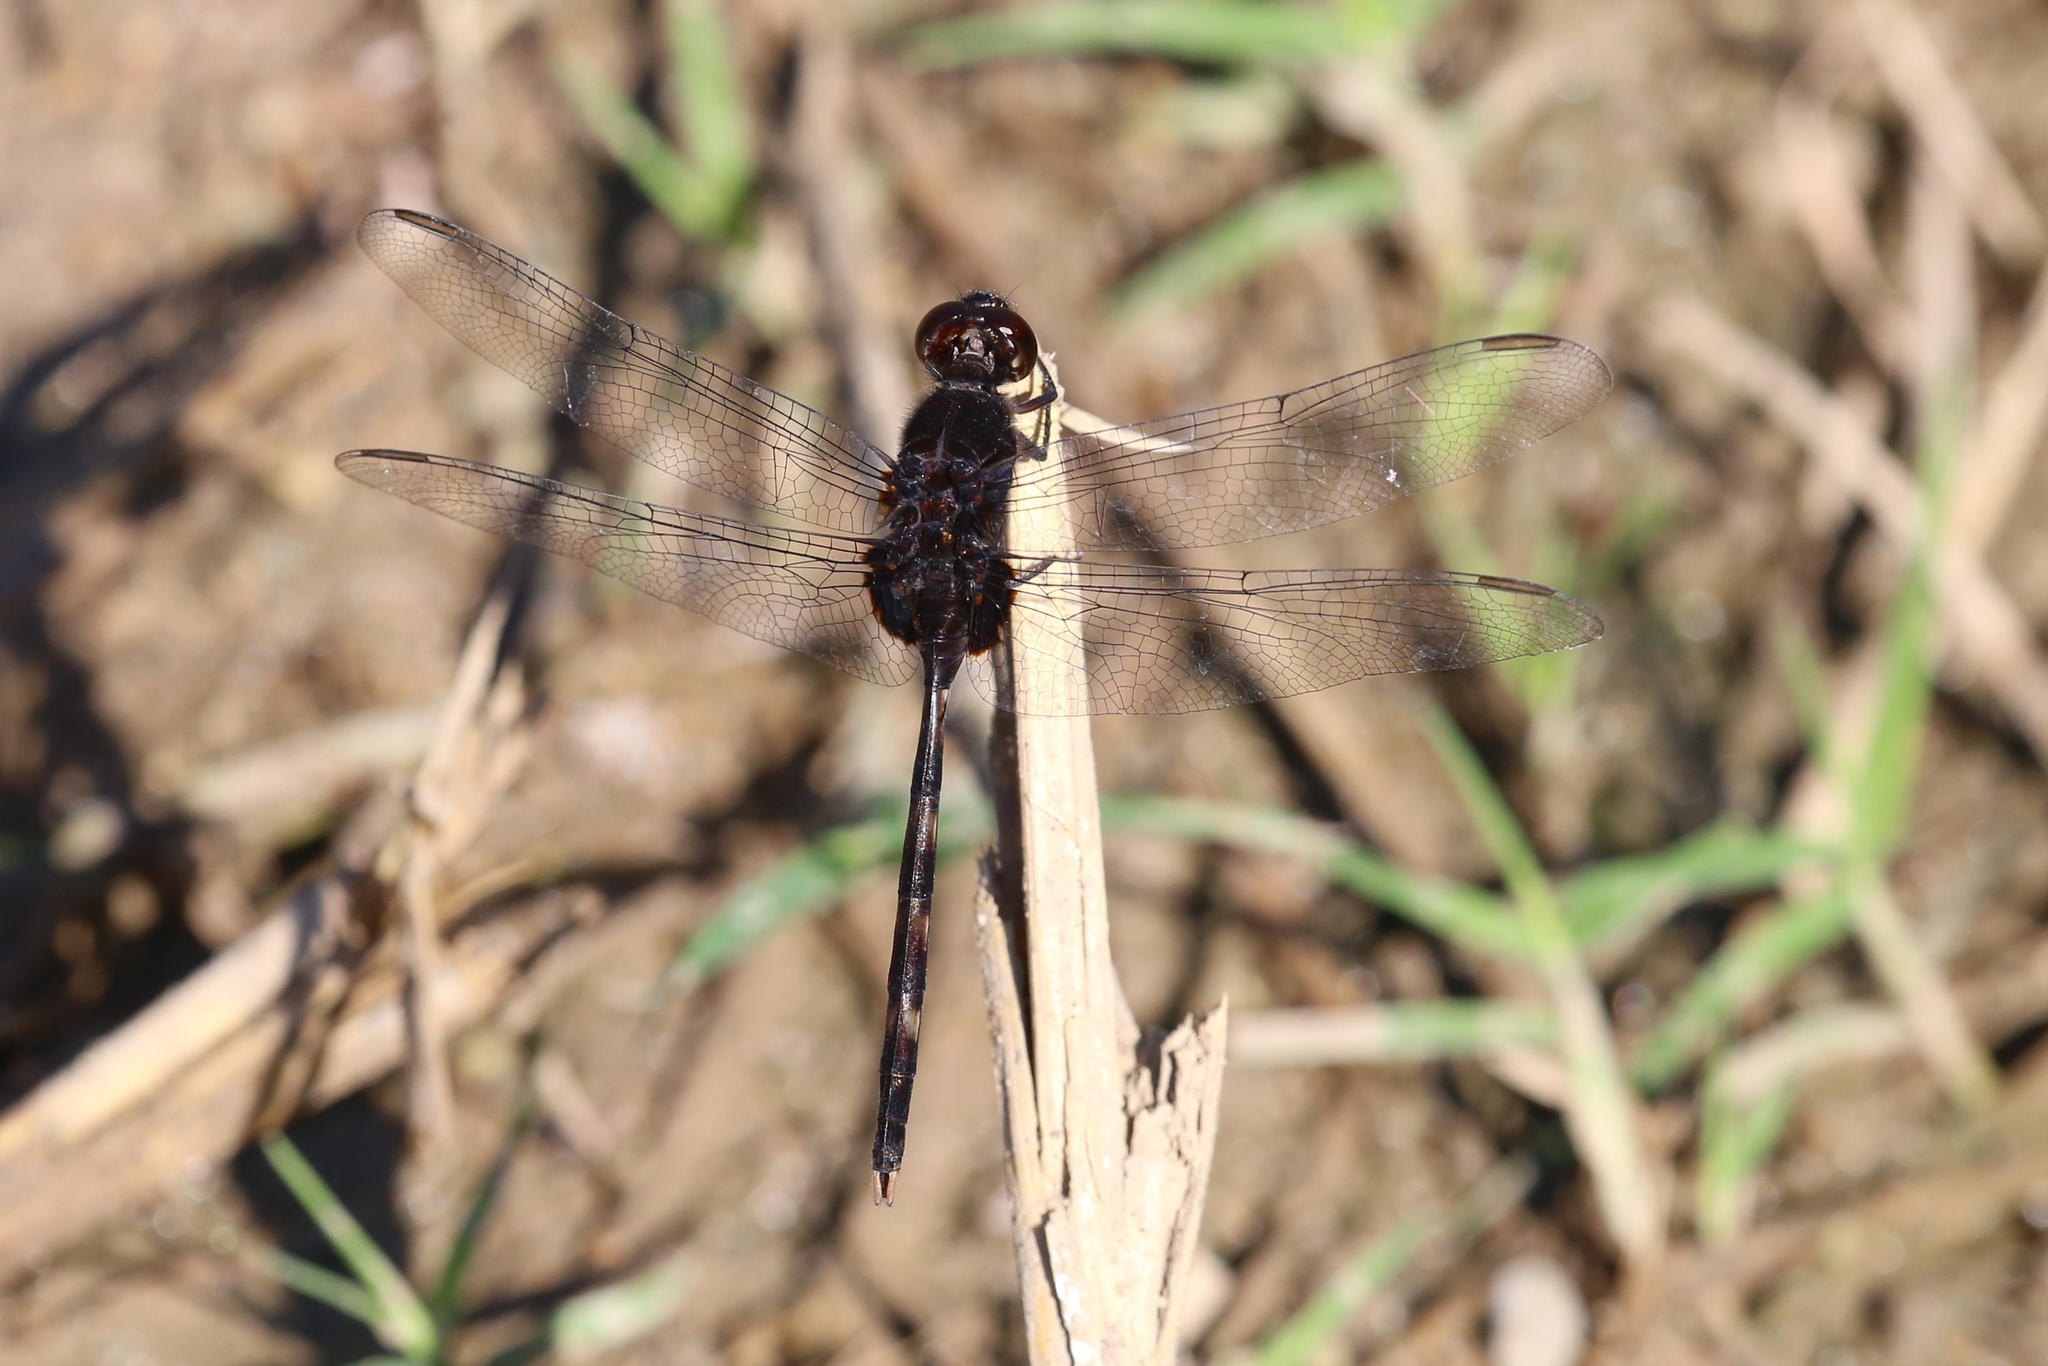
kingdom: Animalia
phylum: Arthropoda
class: Insecta
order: Odonata
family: Libellulidae
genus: Erythemis
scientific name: Erythemis plebeja
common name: Pin-tailed pondhawk
